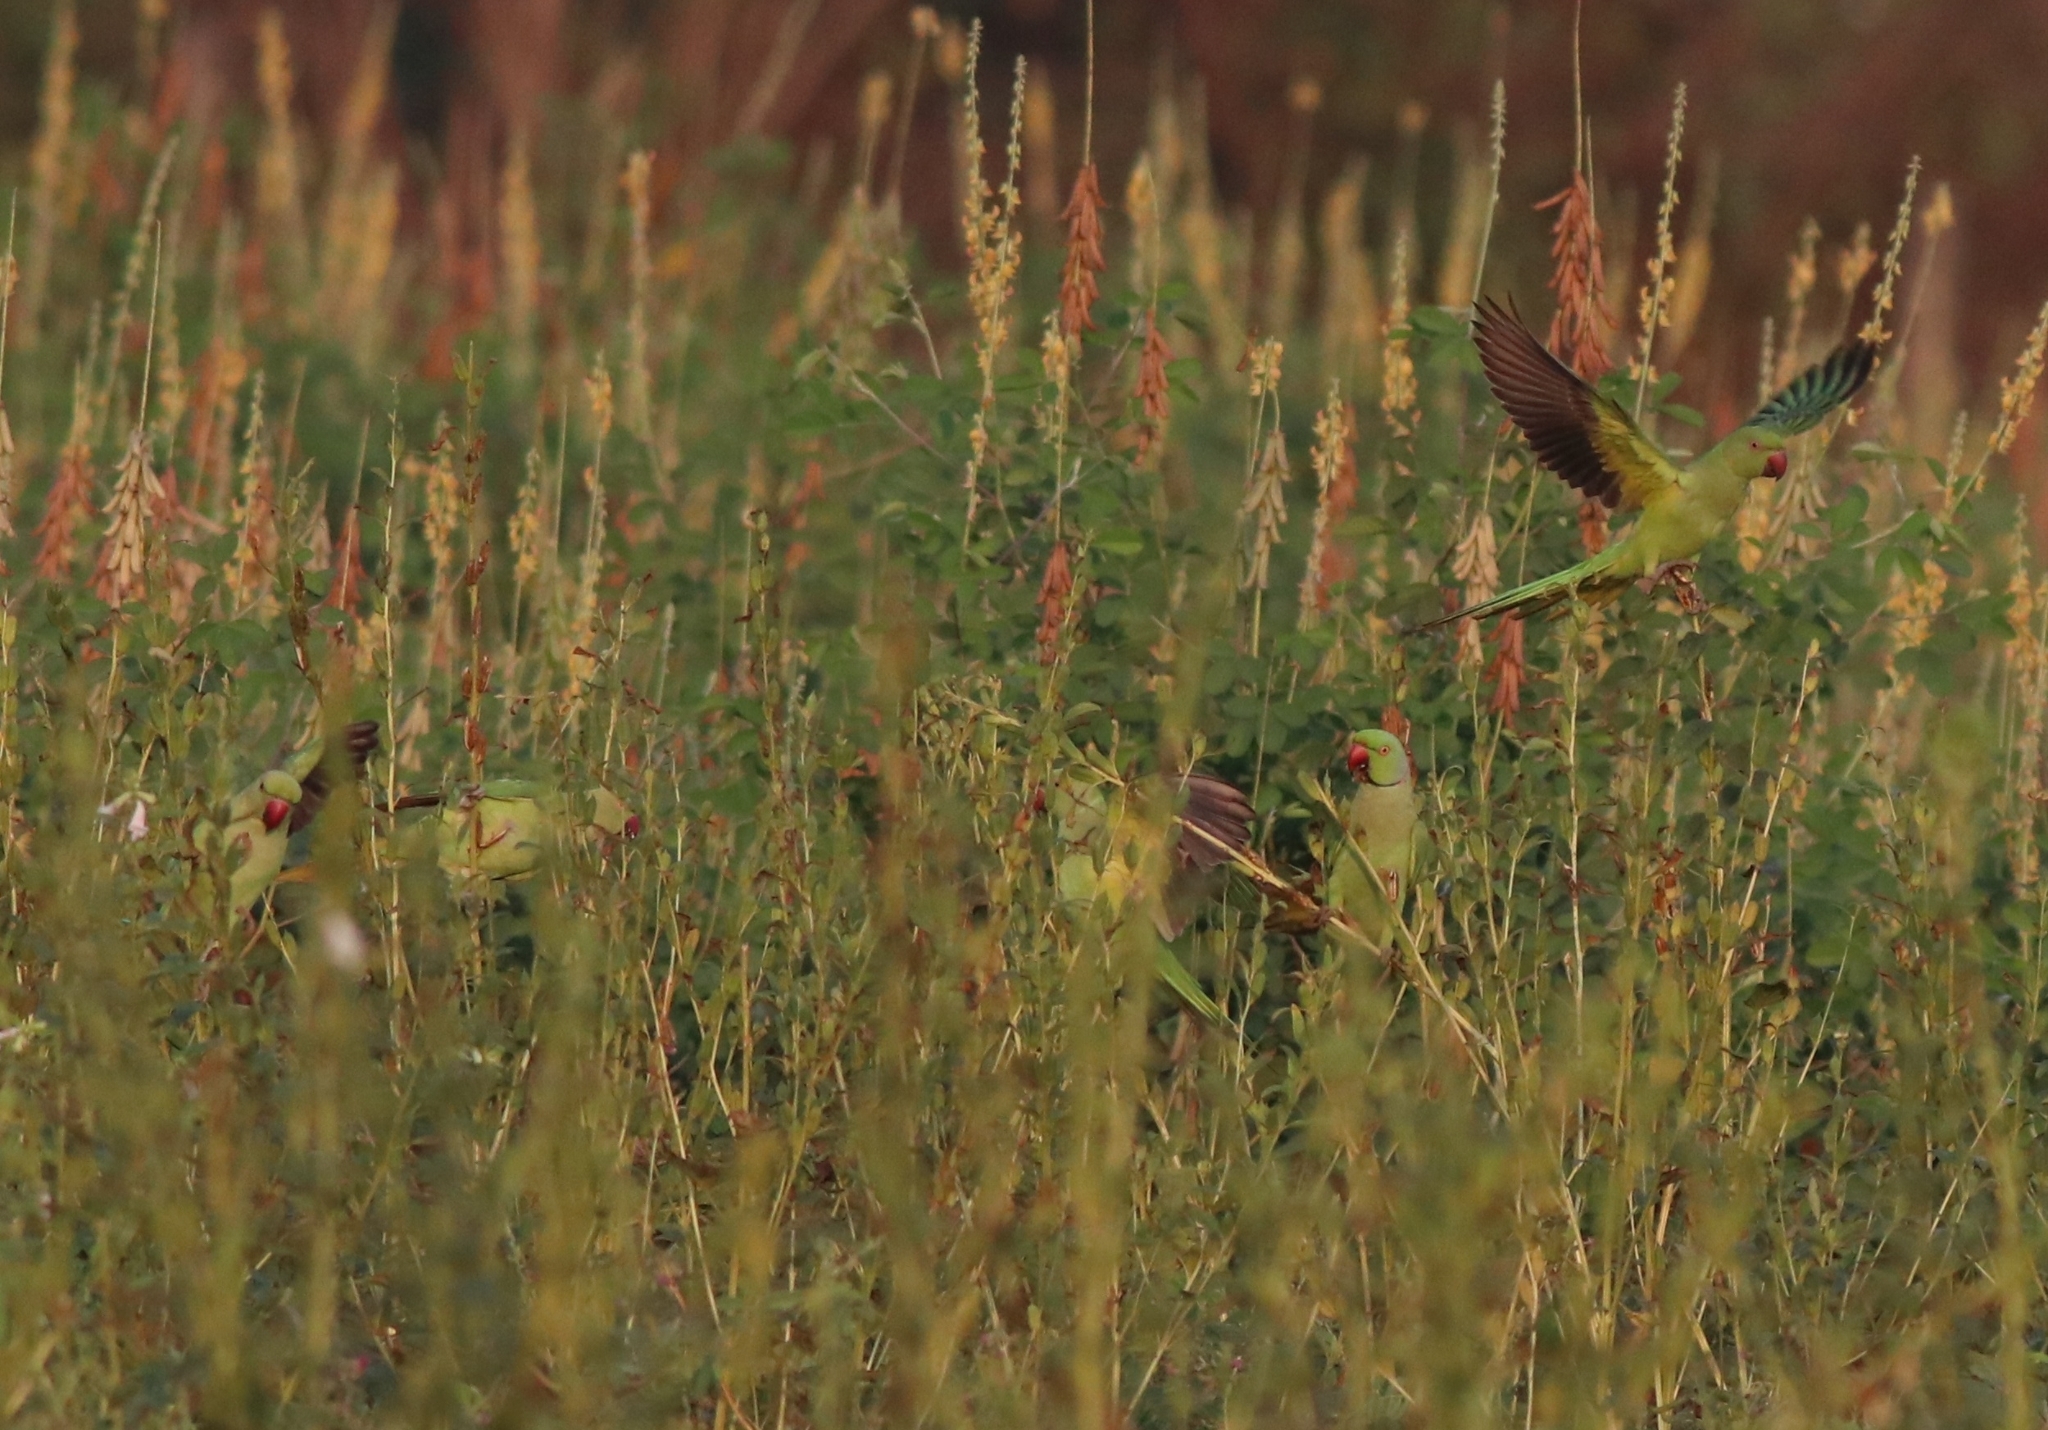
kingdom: Animalia
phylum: Chordata
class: Aves
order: Psittaciformes
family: Psittacidae
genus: Psittacula
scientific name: Psittacula krameri
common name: Rose-ringed parakeet
